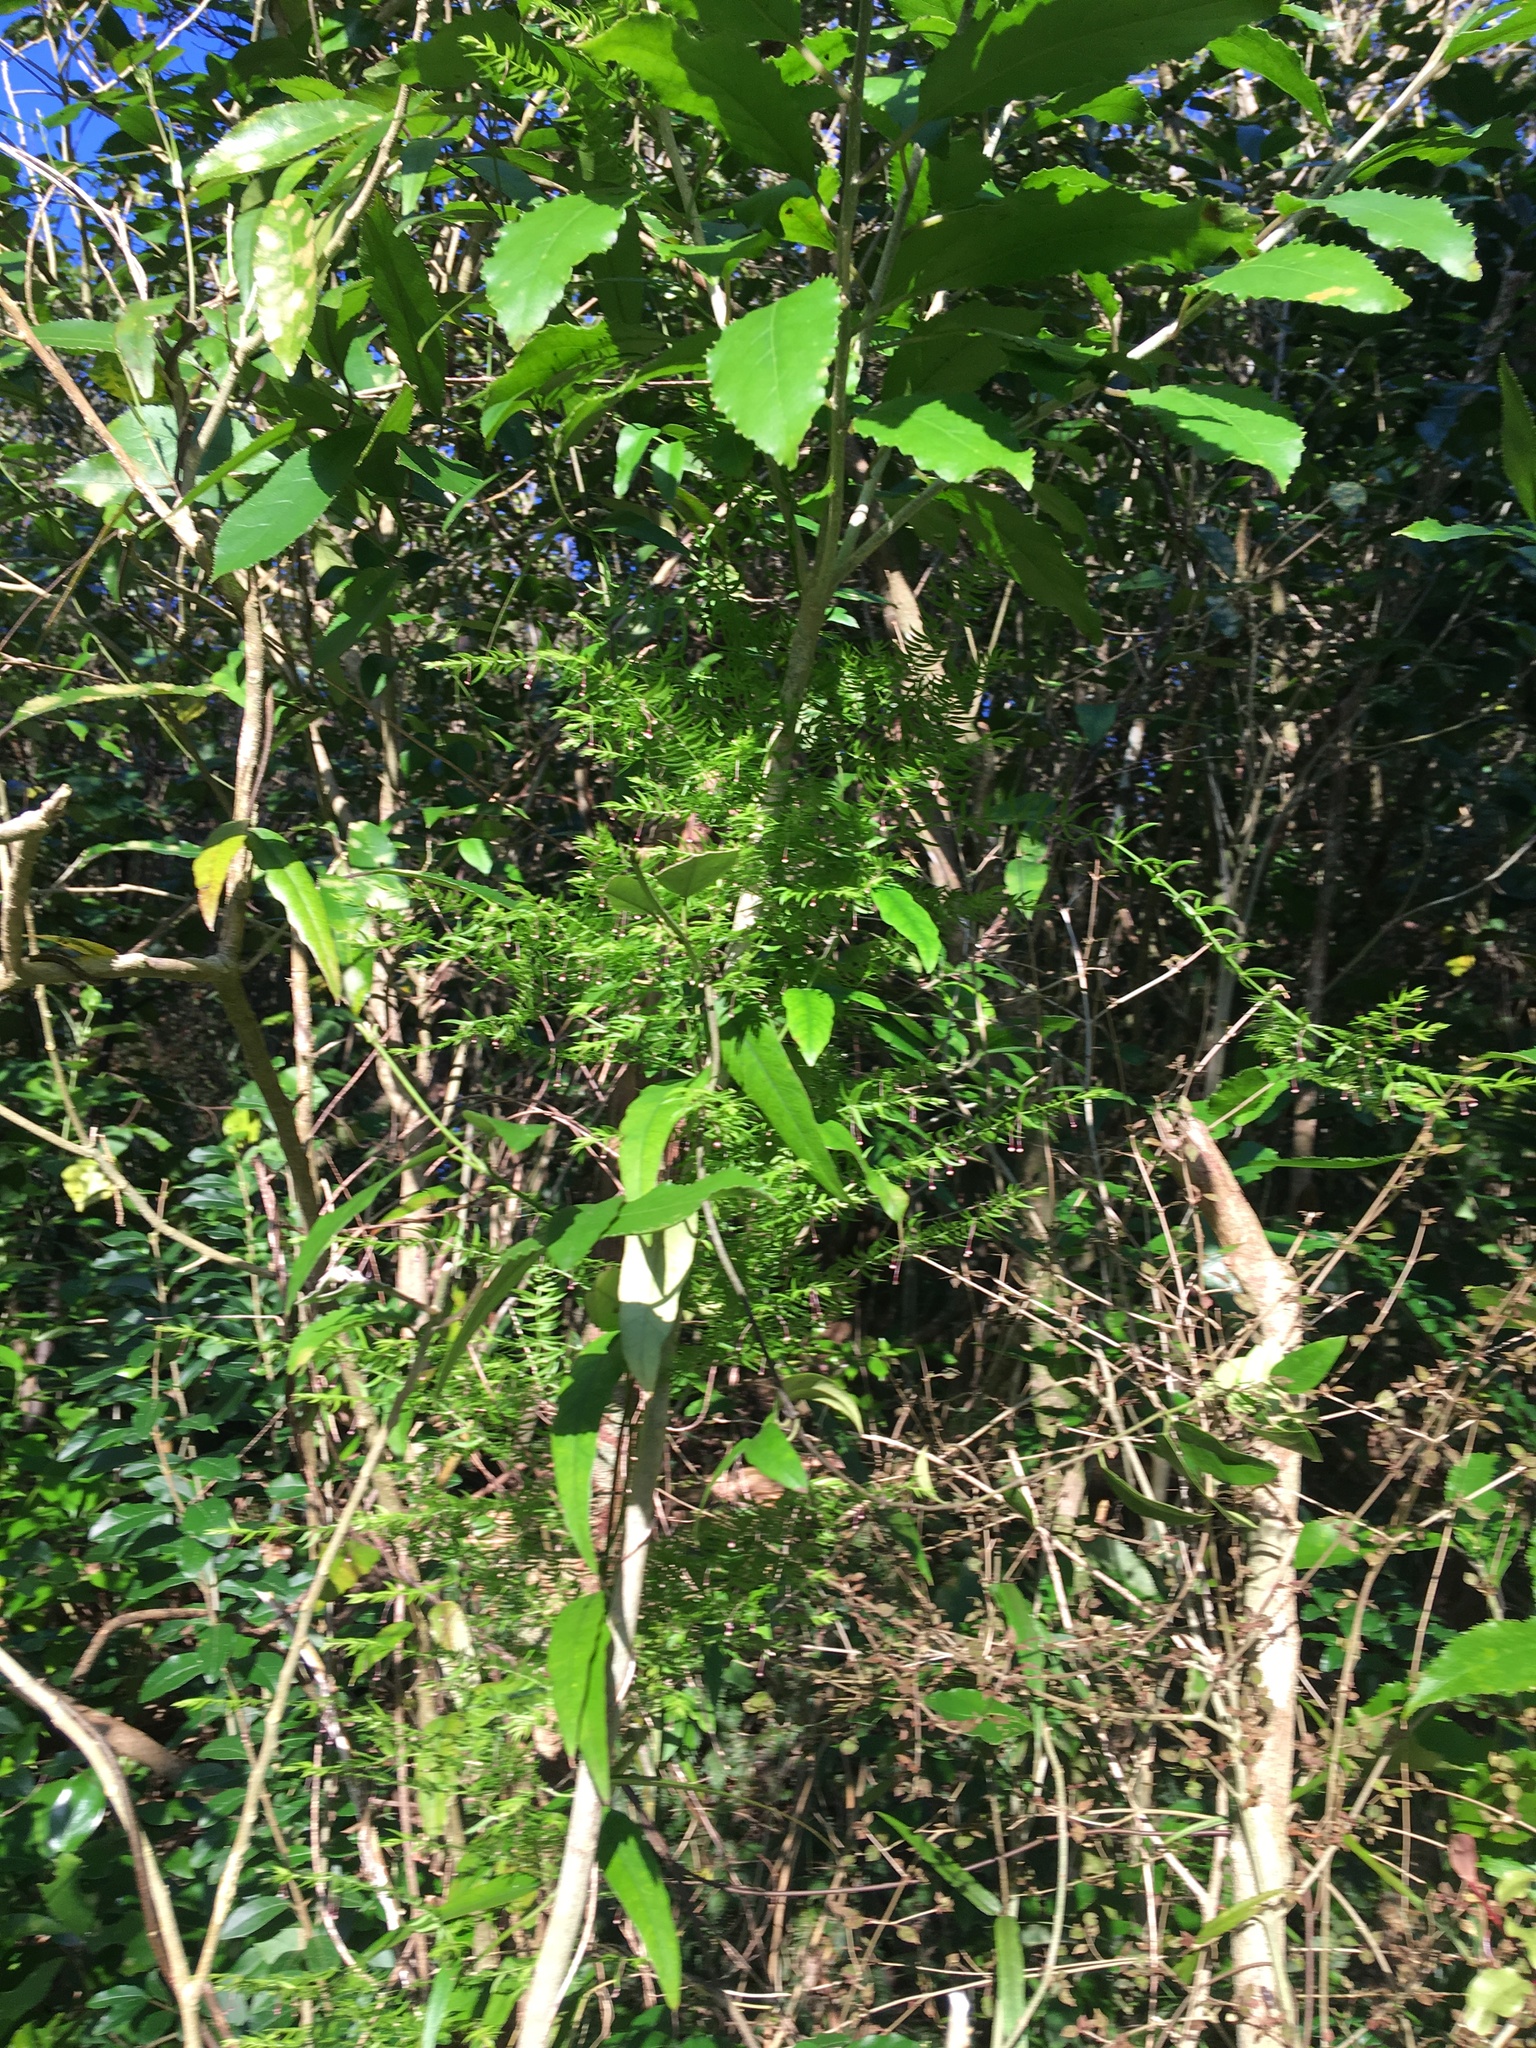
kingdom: Plantae
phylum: Tracheophyta
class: Magnoliopsida
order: Malpighiales
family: Violaceae
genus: Melicytus
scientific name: Melicytus ramiflorus
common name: Mahoe
